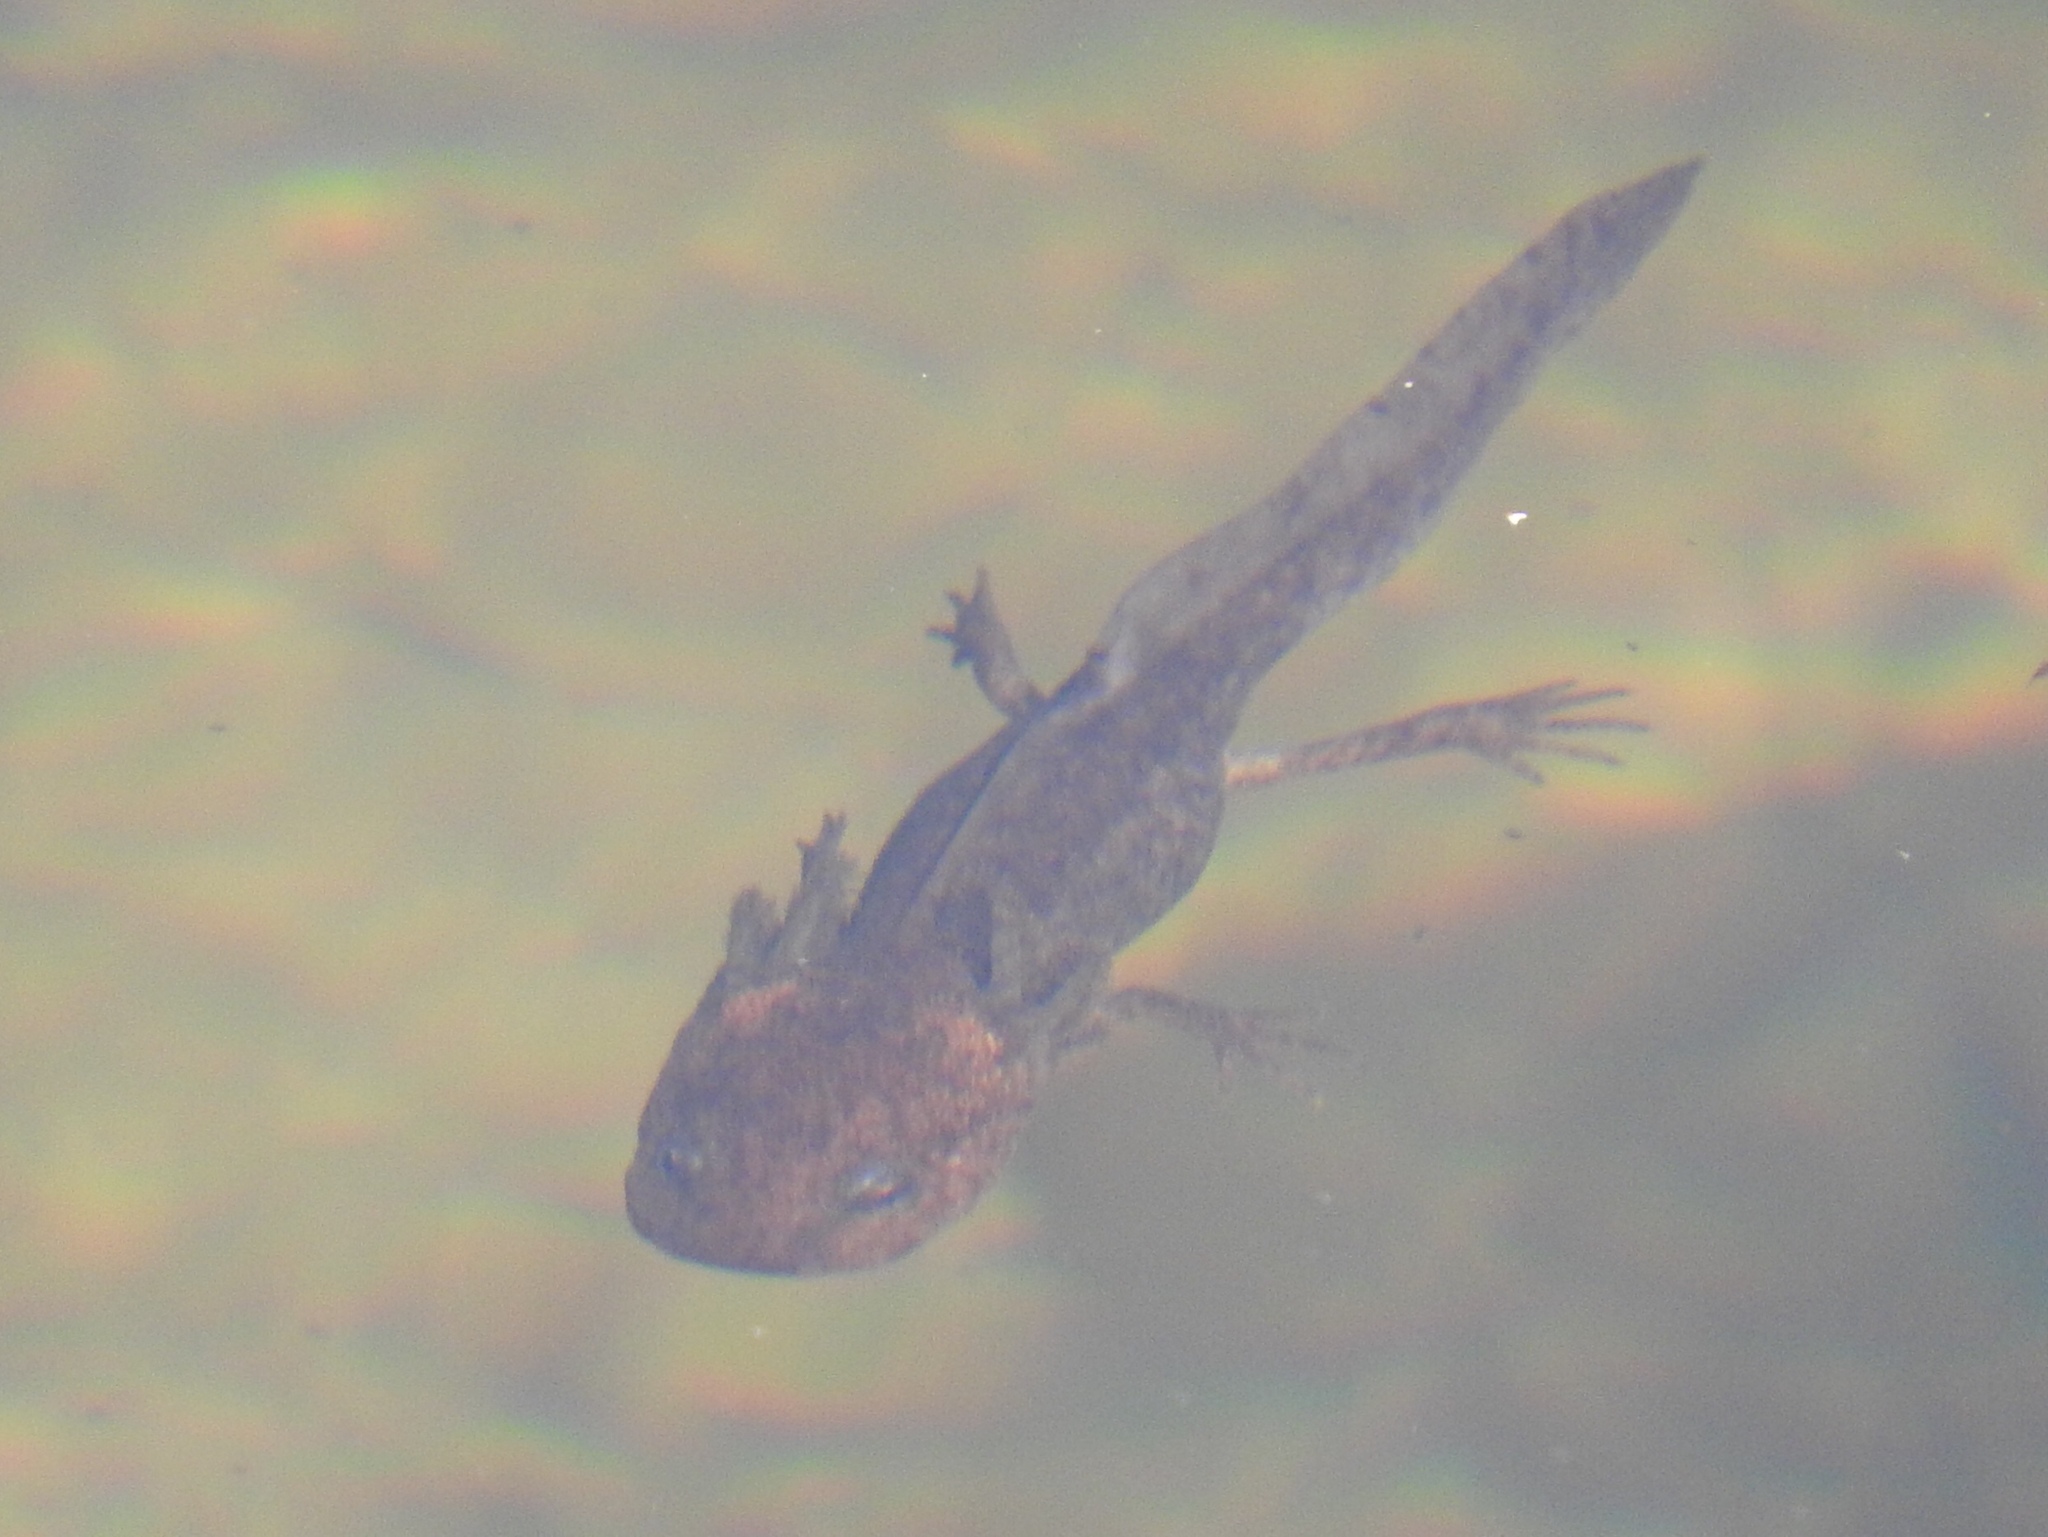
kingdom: Animalia
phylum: Chordata
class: Amphibia
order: Caudata
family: Ambystomatidae
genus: Ambystoma
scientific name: Ambystoma gracile
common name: Northwestern salamander
